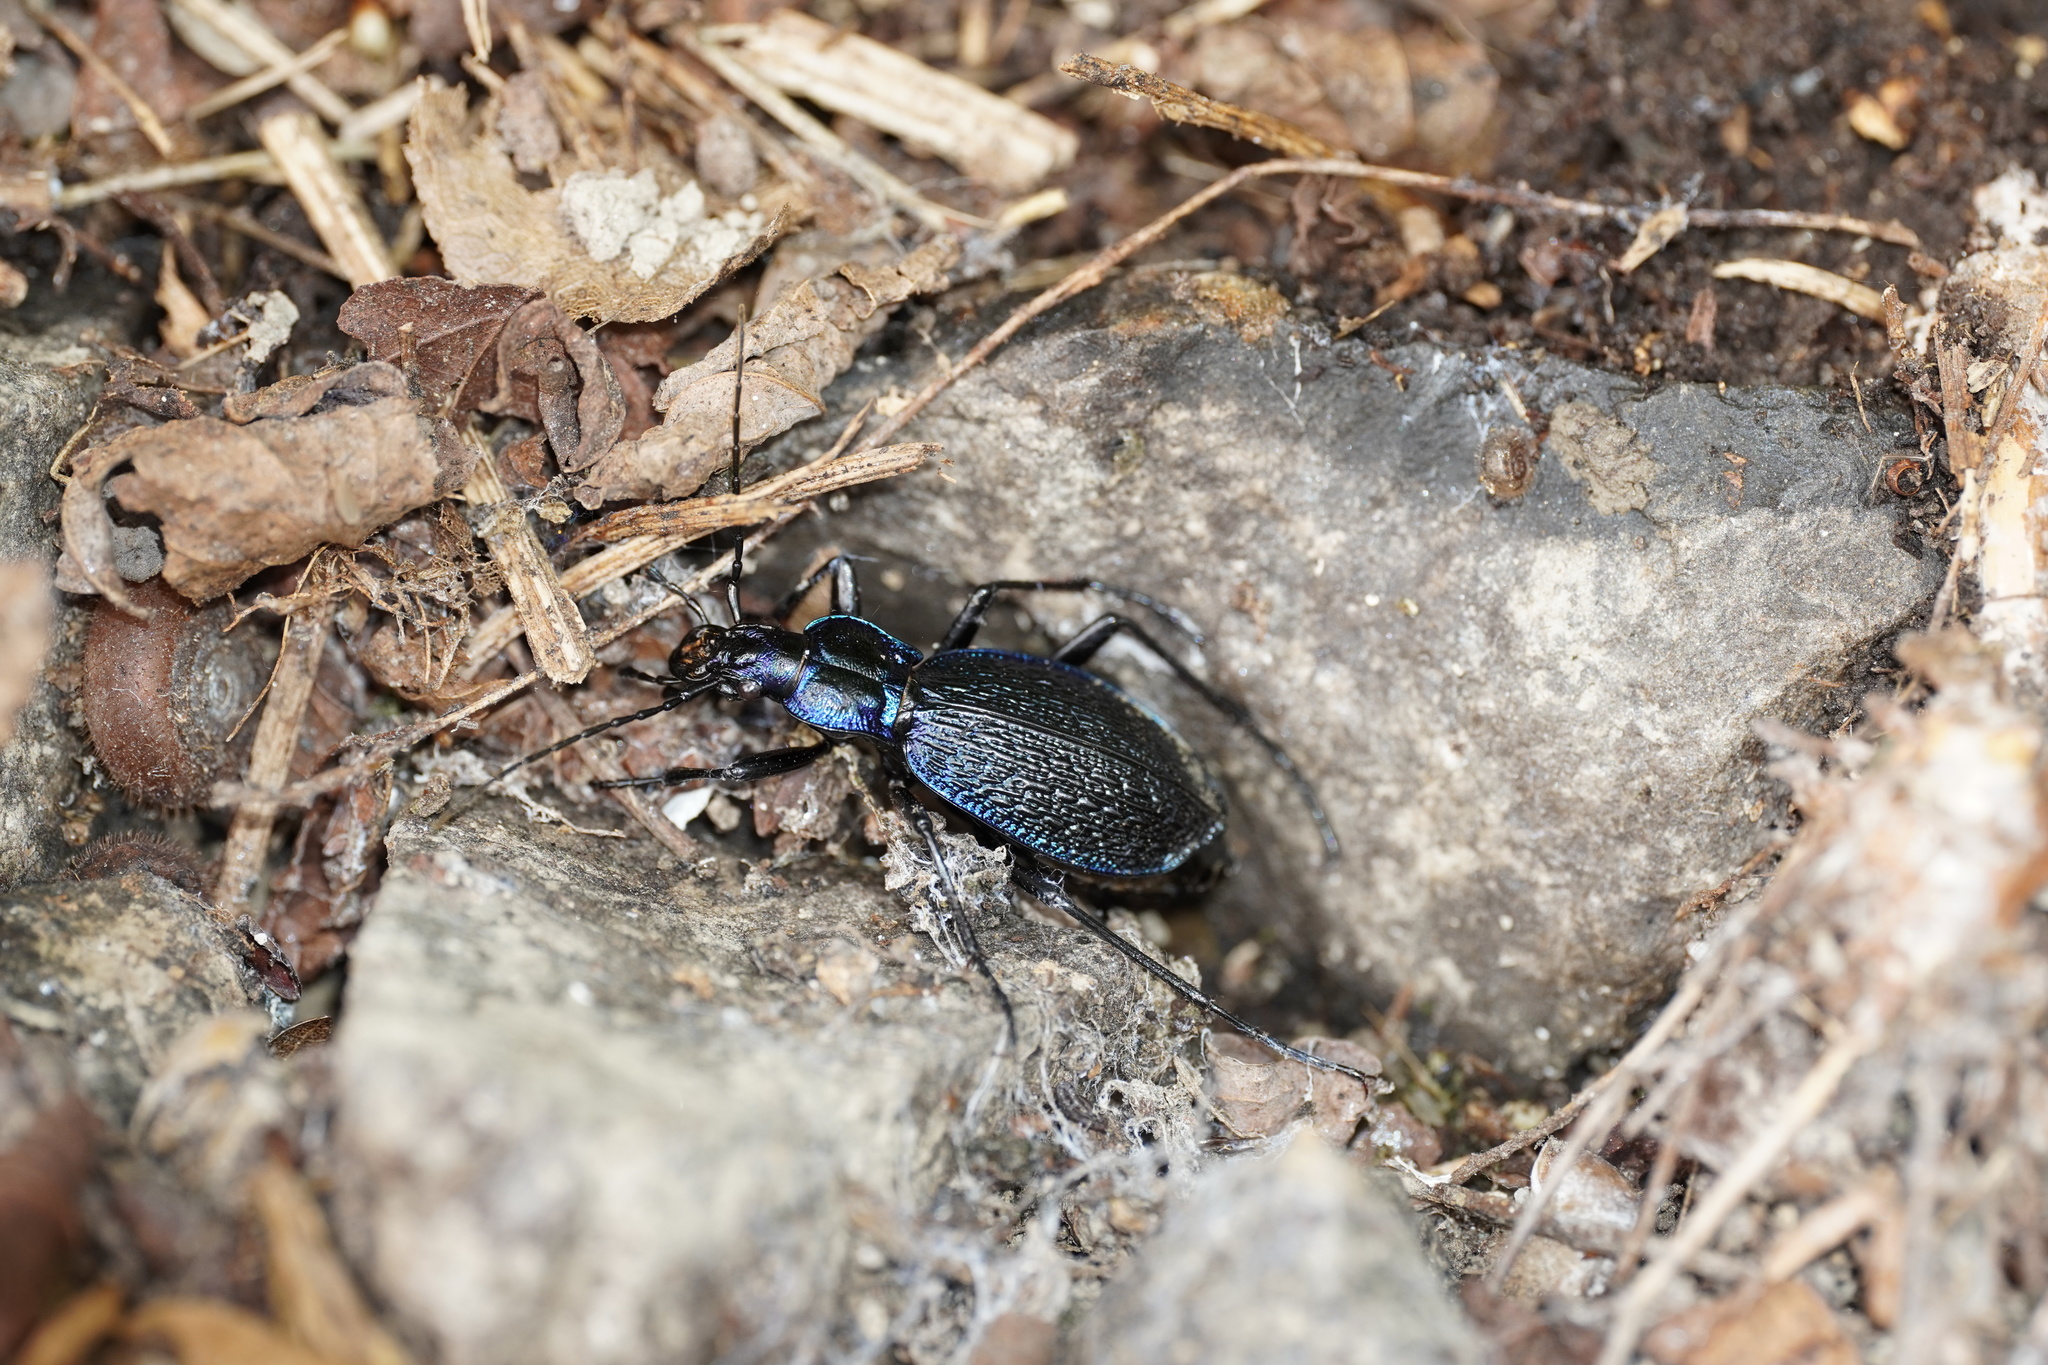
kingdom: Animalia
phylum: Arthropoda
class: Insecta
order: Coleoptera
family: Carabidae
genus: Carabus
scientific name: Carabus intricatus
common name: Blue ground beetle
